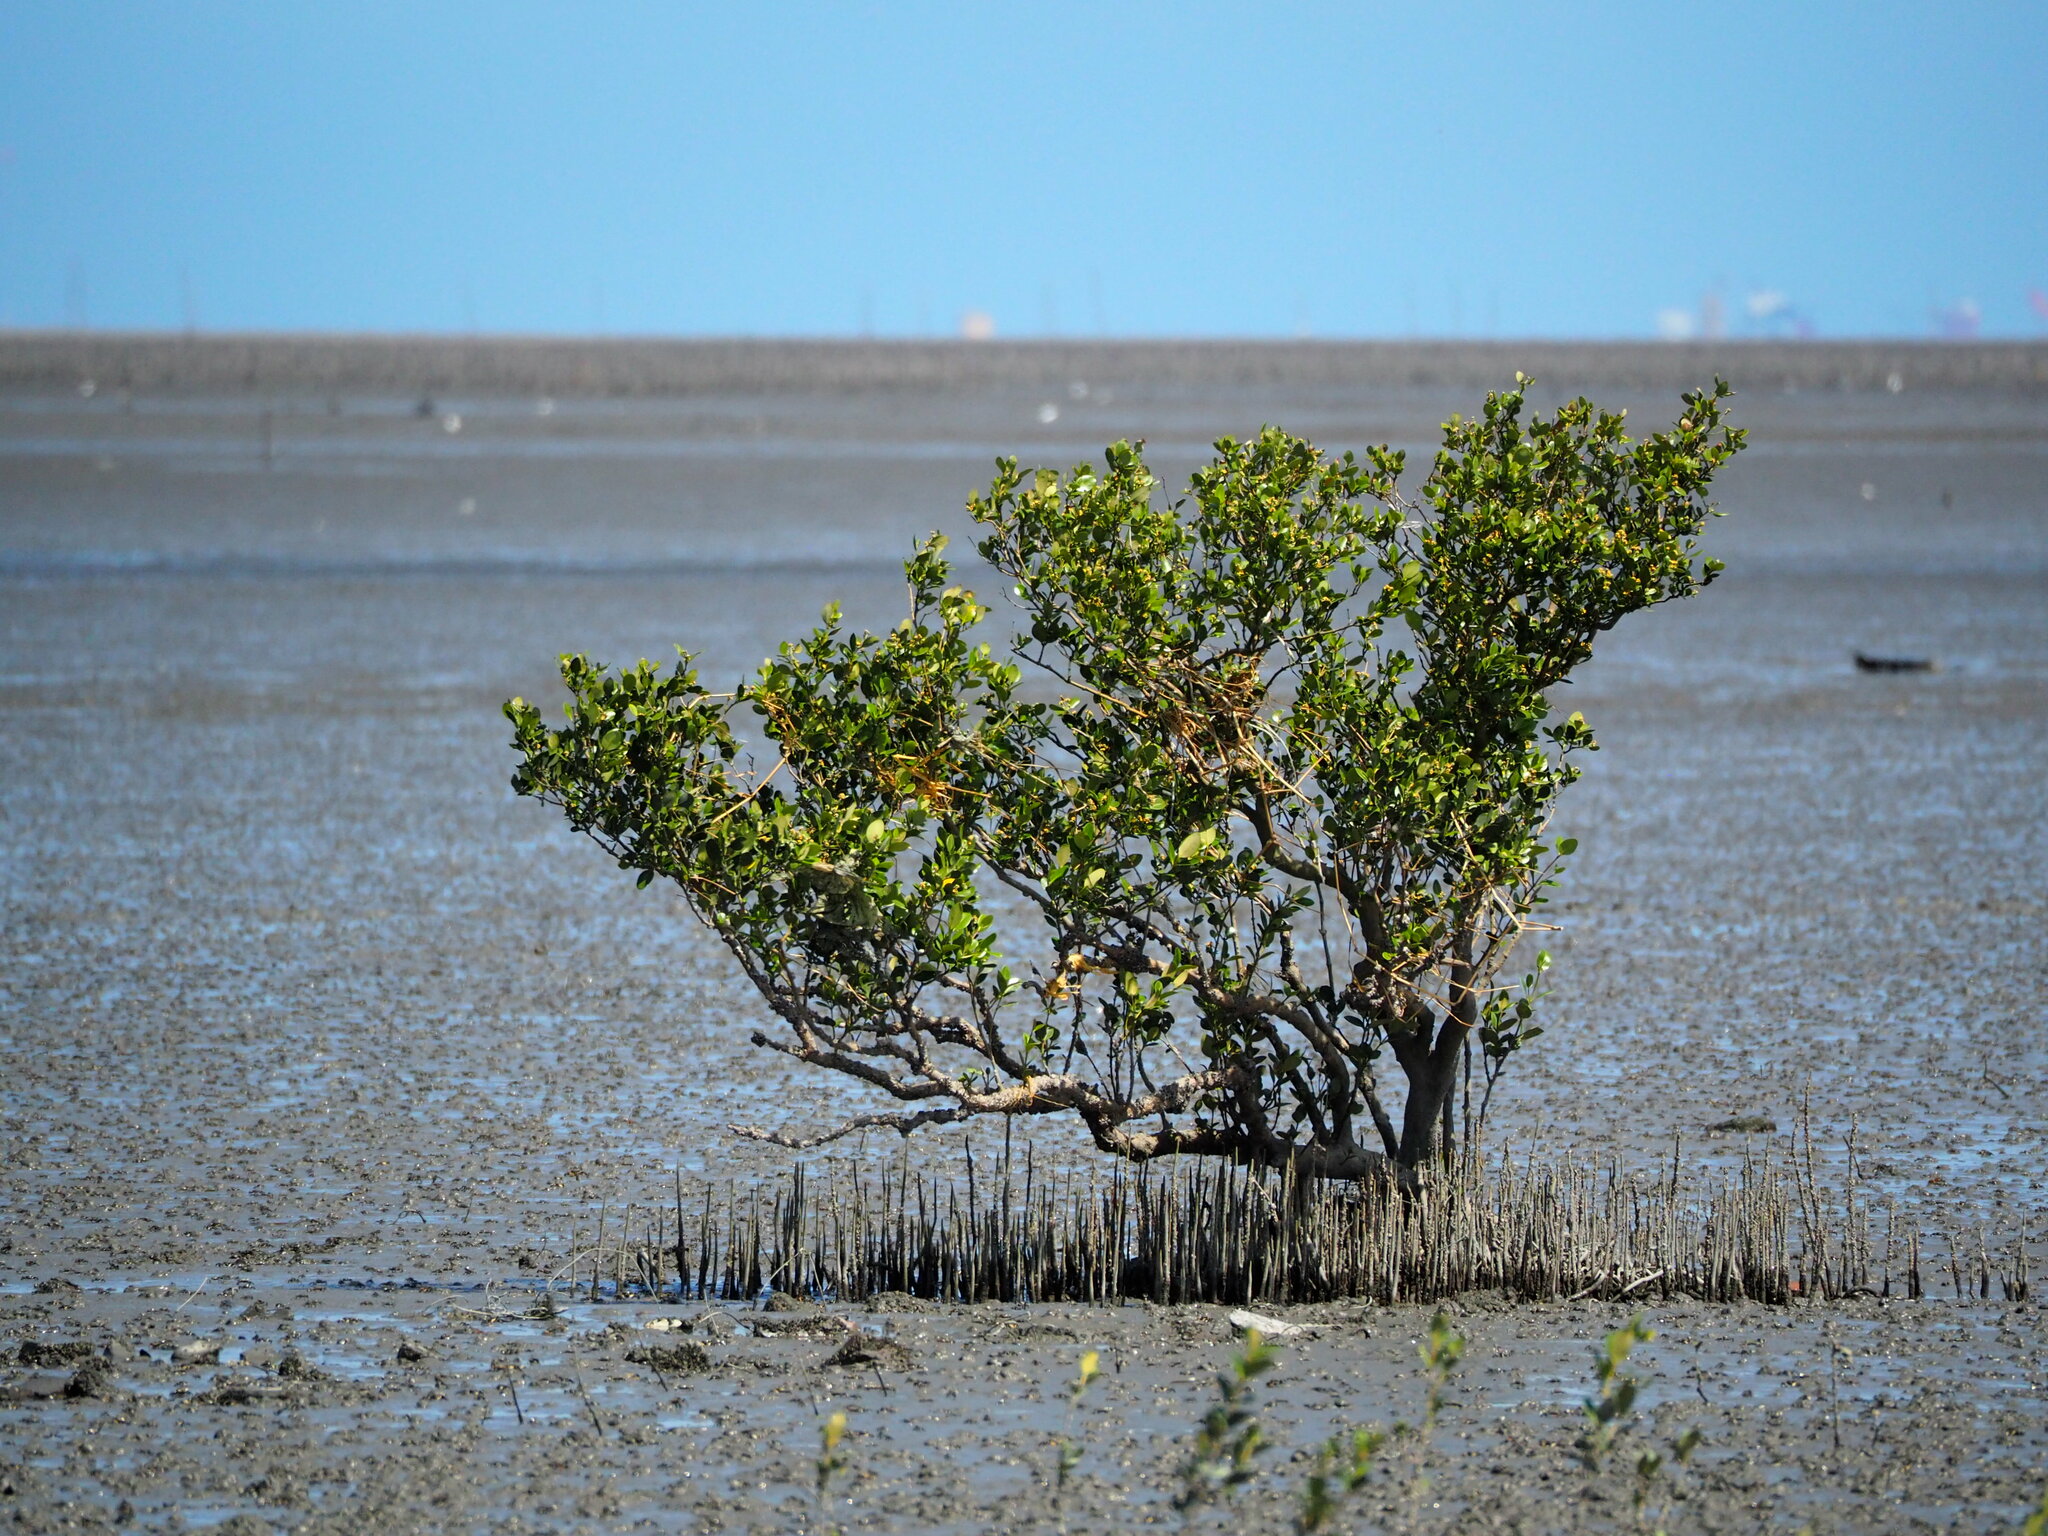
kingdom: Plantae
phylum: Tracheophyta
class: Magnoliopsida
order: Lamiales
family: Acanthaceae
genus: Avicennia
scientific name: Avicennia marina
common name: Gray mangrove
